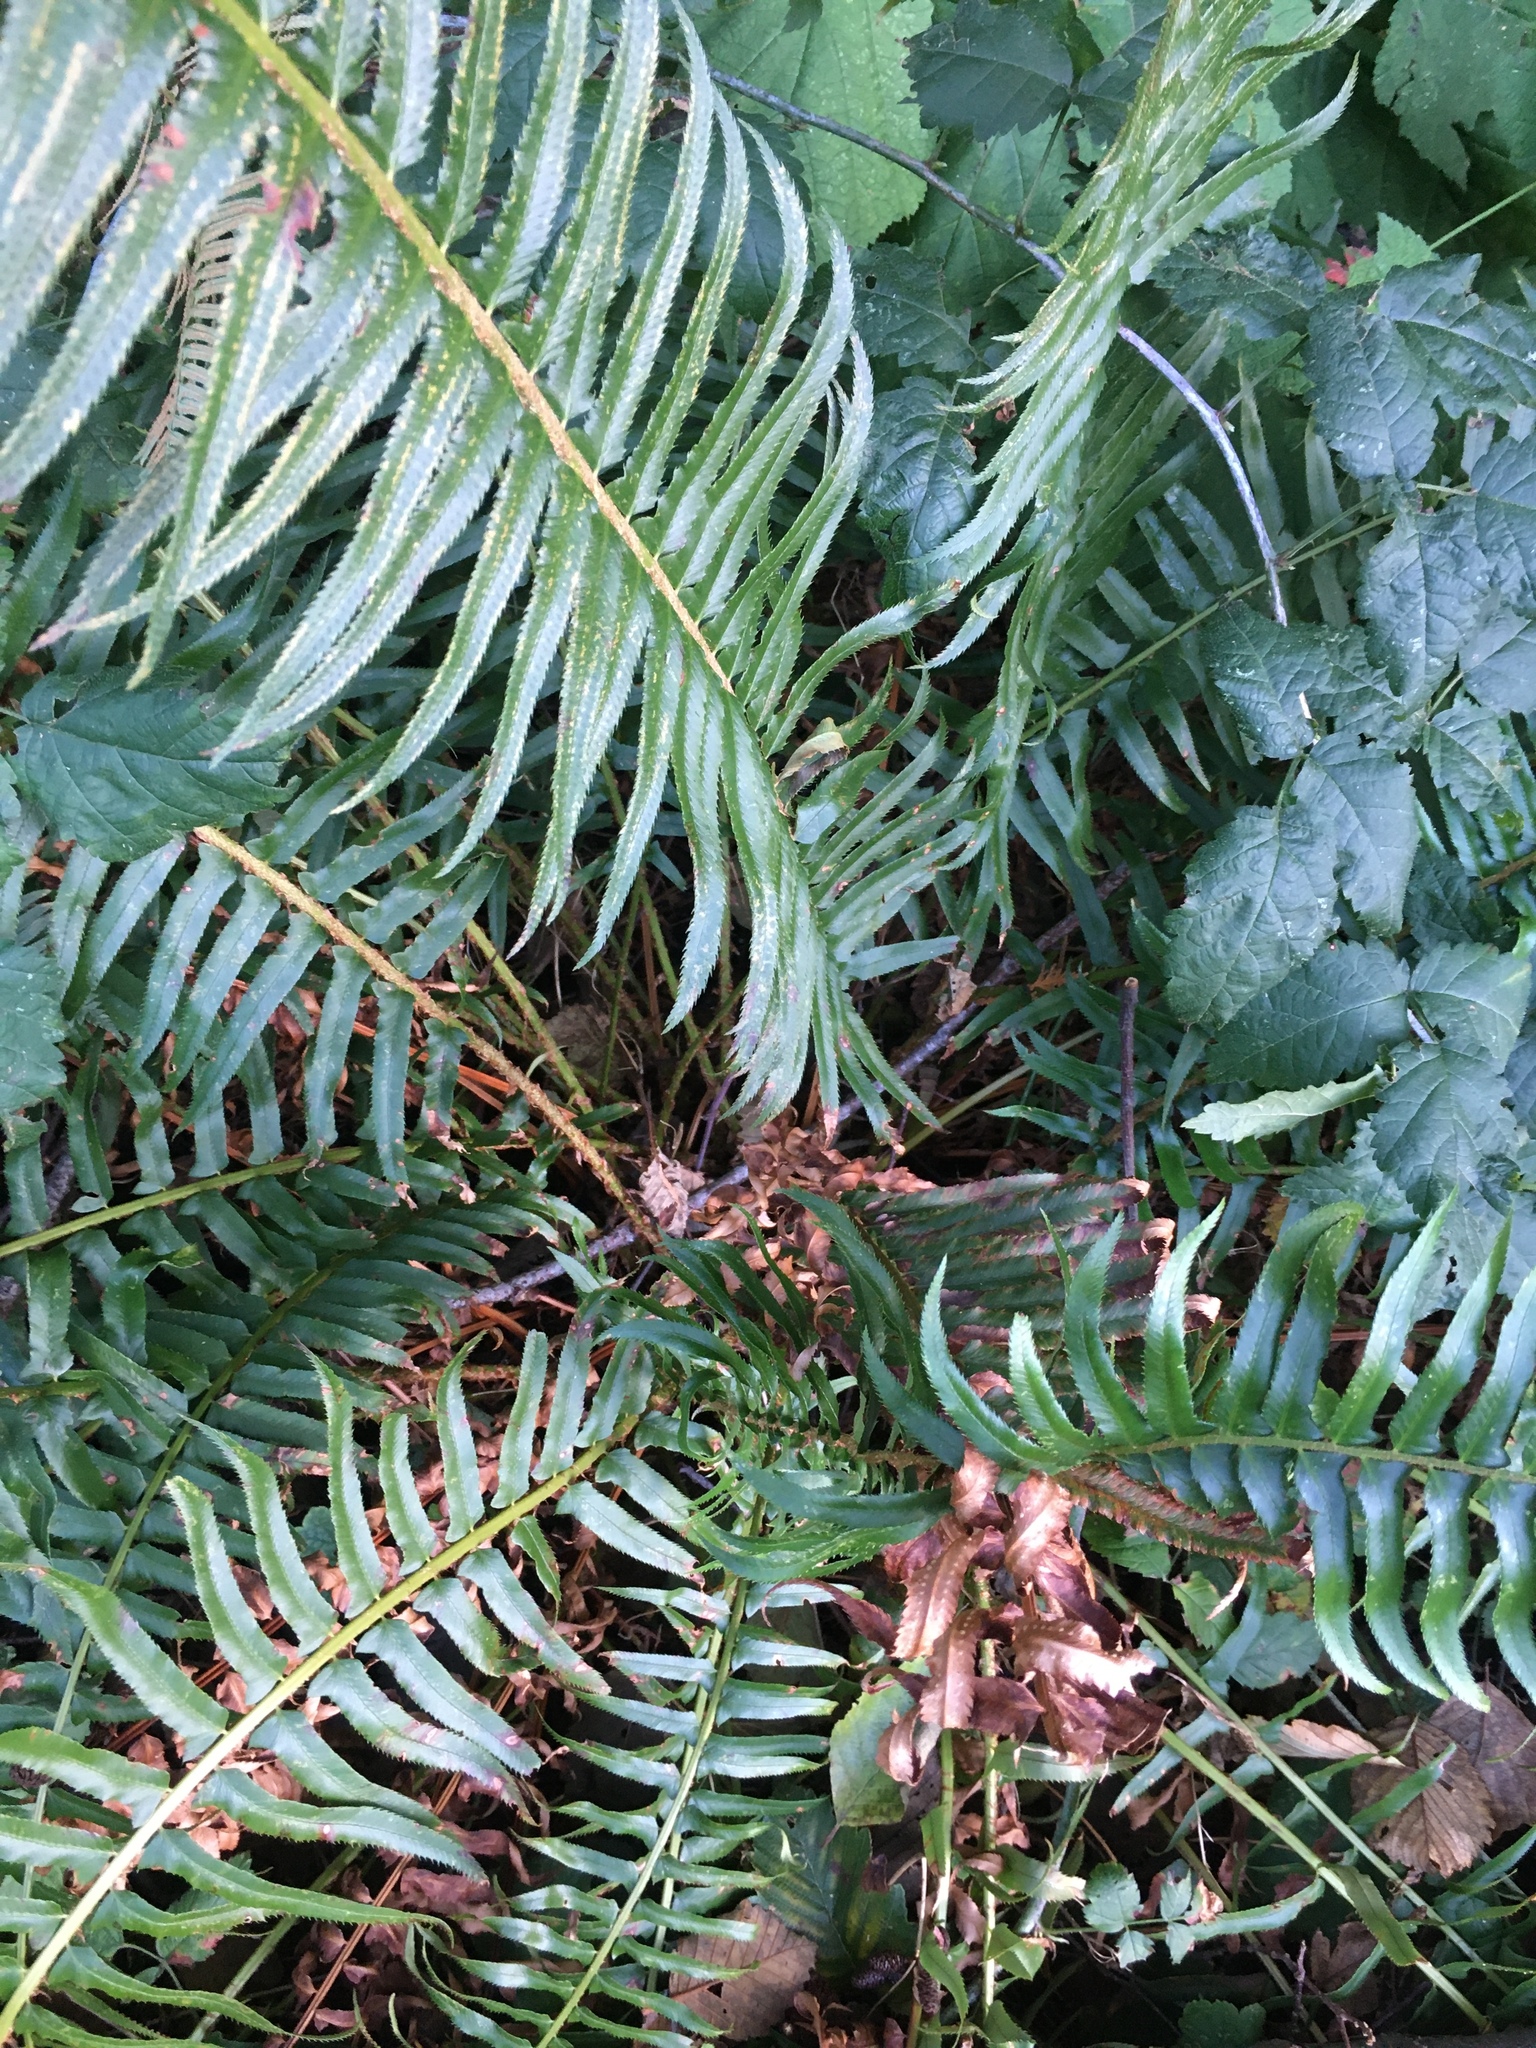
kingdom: Plantae
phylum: Tracheophyta
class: Polypodiopsida
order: Polypodiales
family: Dryopteridaceae
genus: Polystichum
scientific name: Polystichum munitum
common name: Western sword-fern
